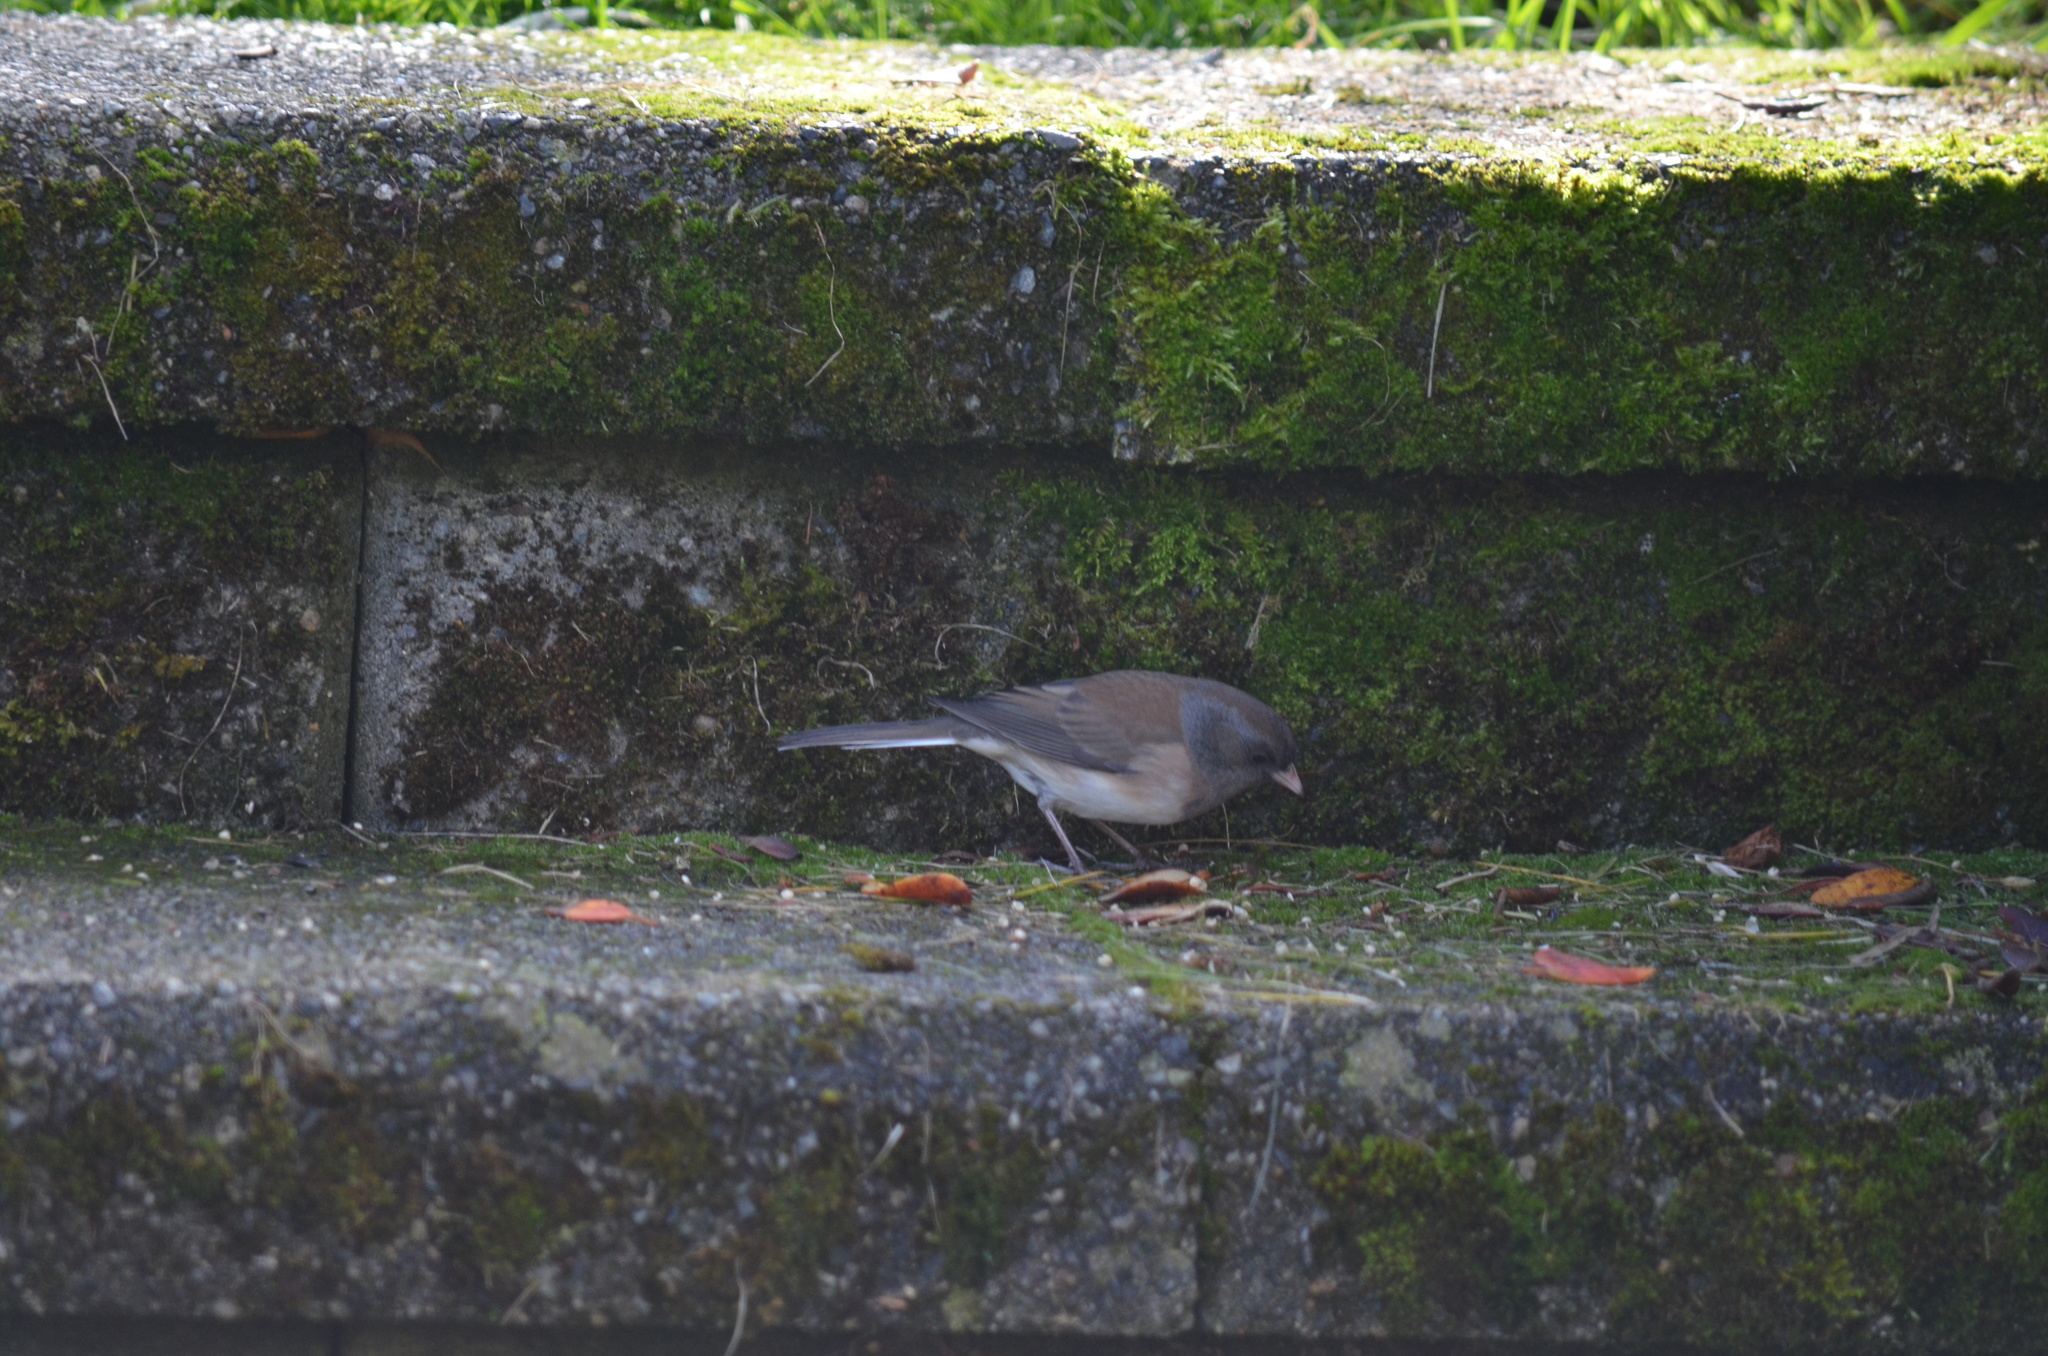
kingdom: Animalia
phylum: Chordata
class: Aves
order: Passeriformes
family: Passerellidae
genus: Junco
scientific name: Junco hyemalis
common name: Dark-eyed junco
